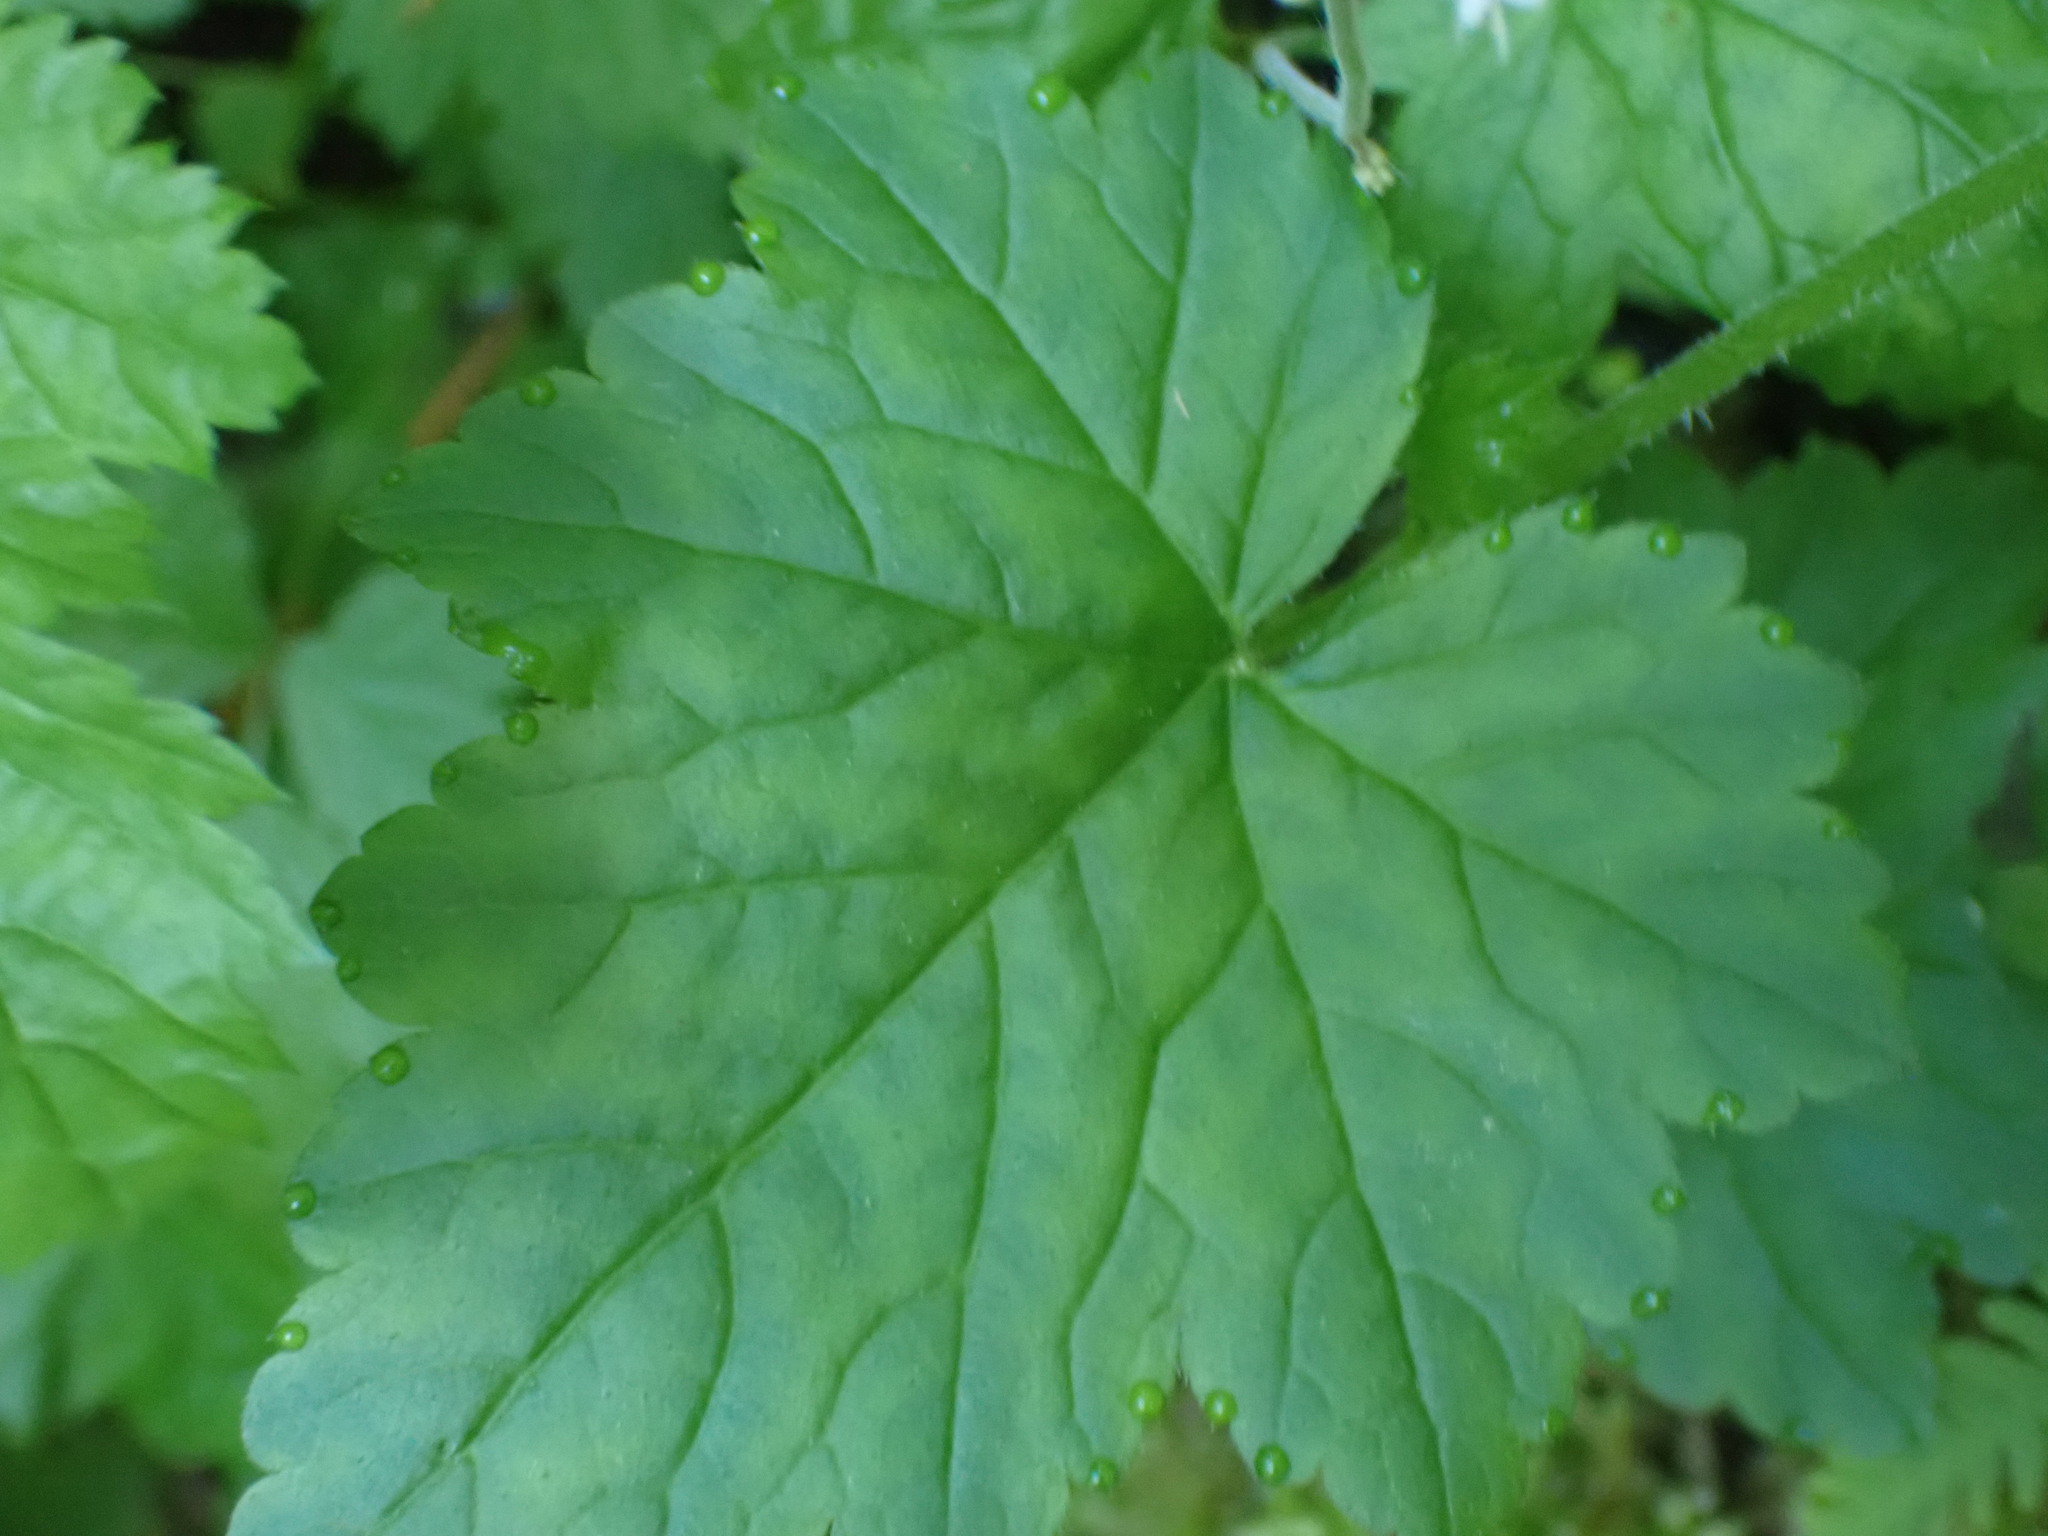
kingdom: Plantae
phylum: Tracheophyta
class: Magnoliopsida
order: Saxifragales
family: Saxifragaceae
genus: Tolmiea
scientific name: Tolmiea menziesii
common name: Pick-a-back-plant
